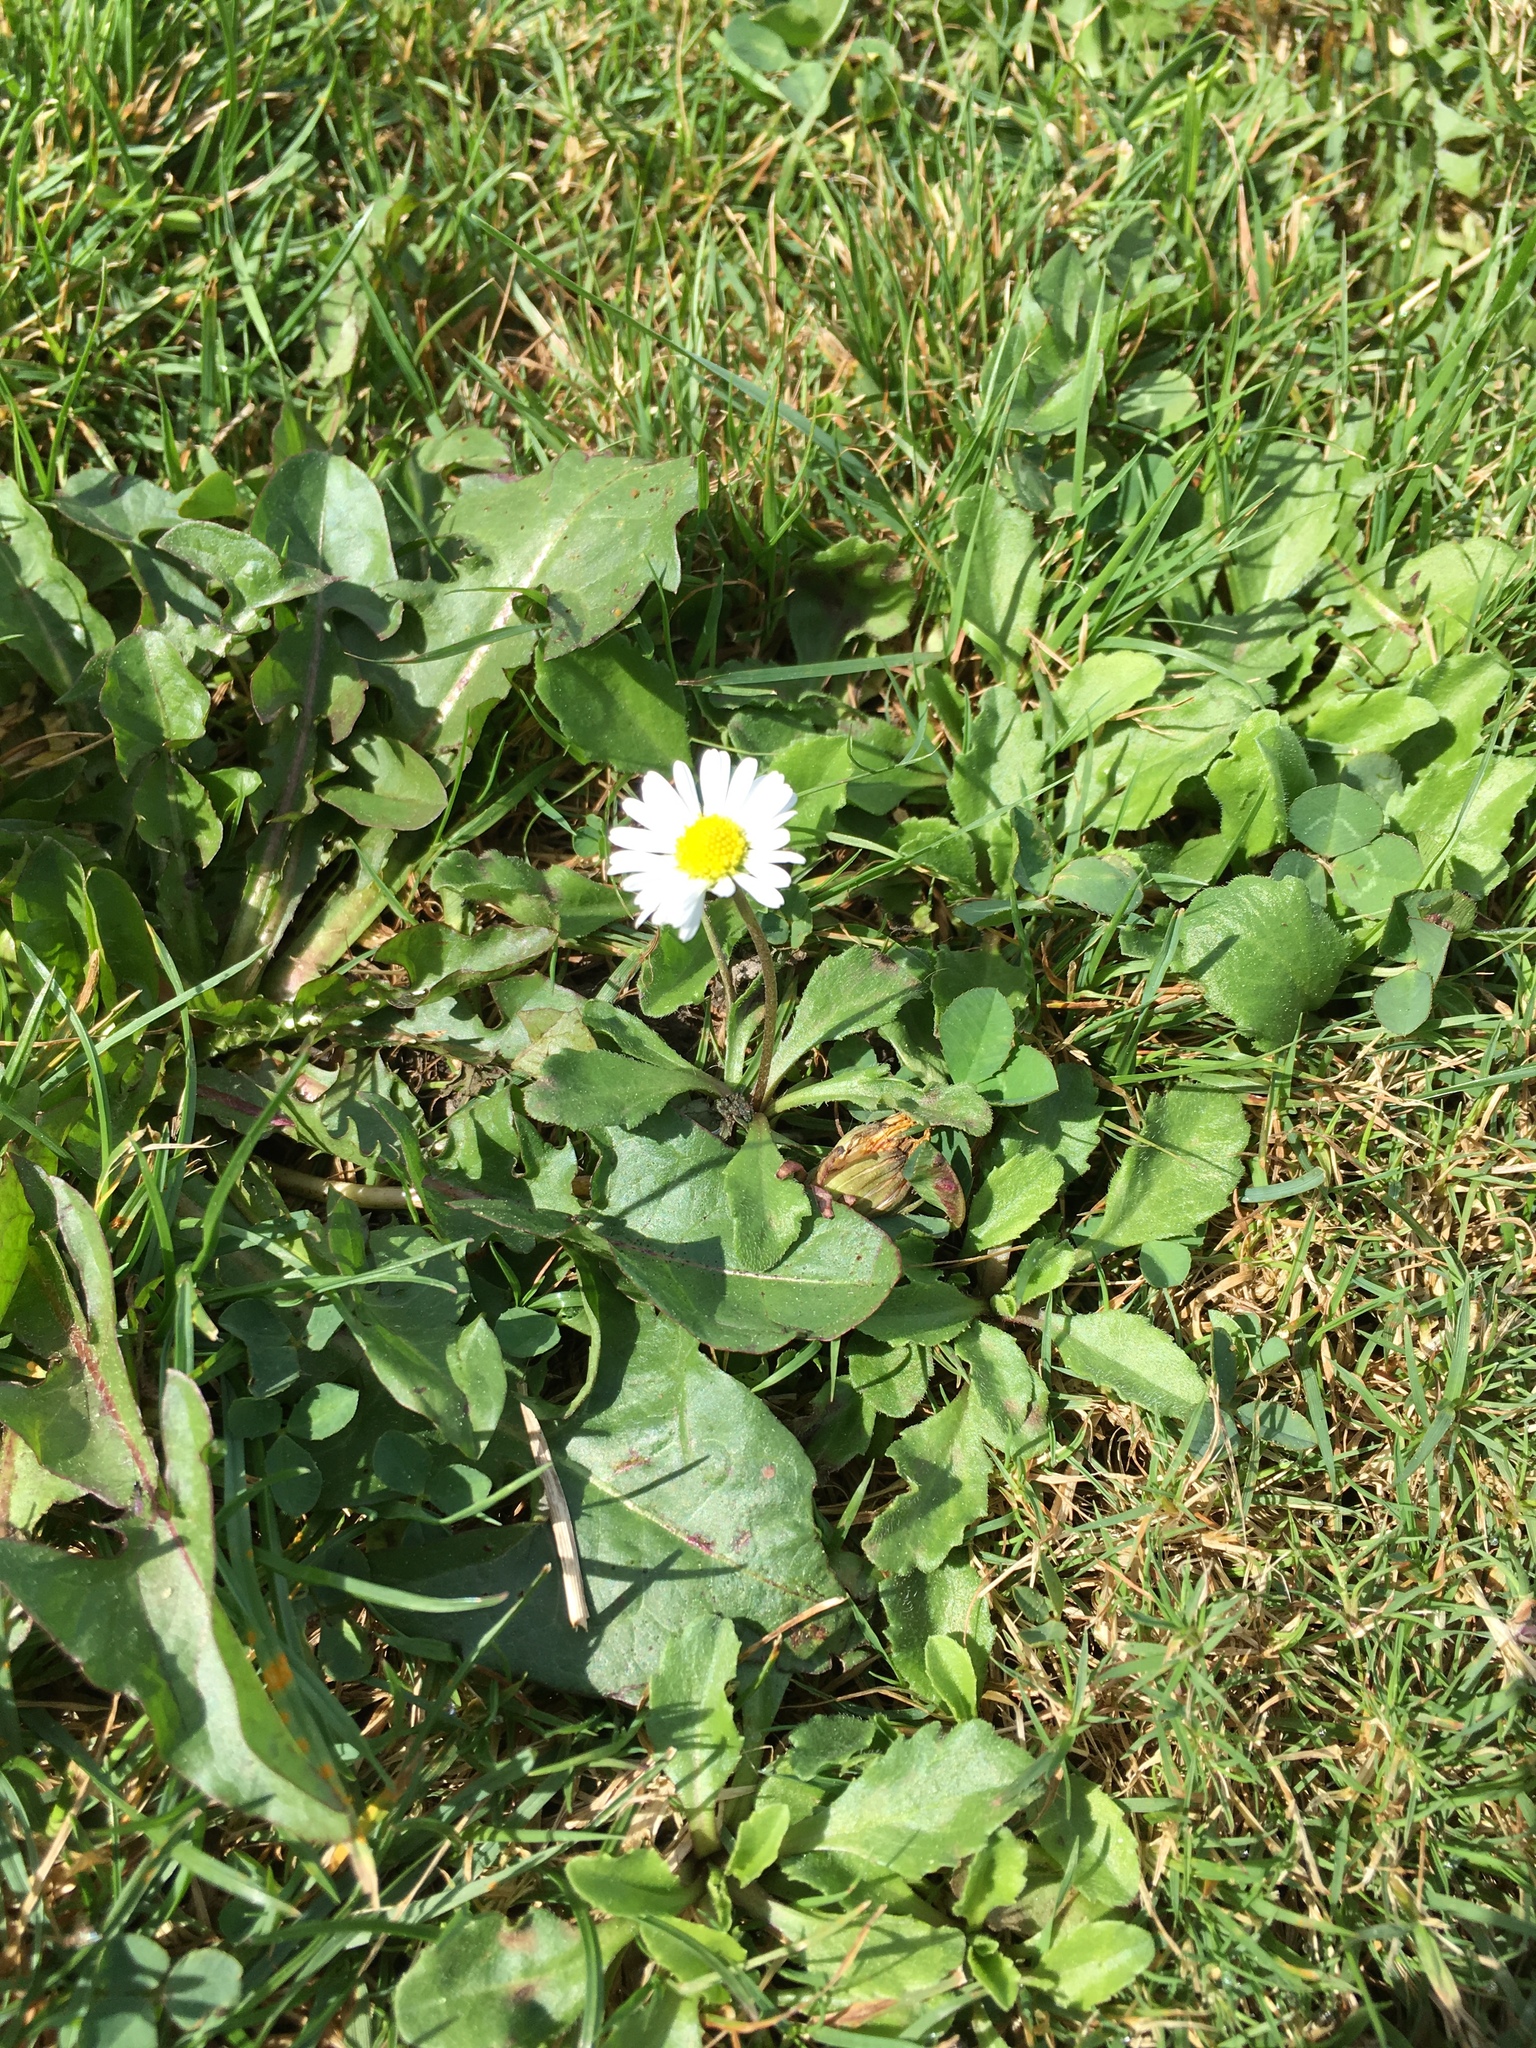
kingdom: Plantae
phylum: Tracheophyta
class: Magnoliopsida
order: Asterales
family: Asteraceae
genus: Bellis
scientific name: Bellis perennis
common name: Lawndaisy
